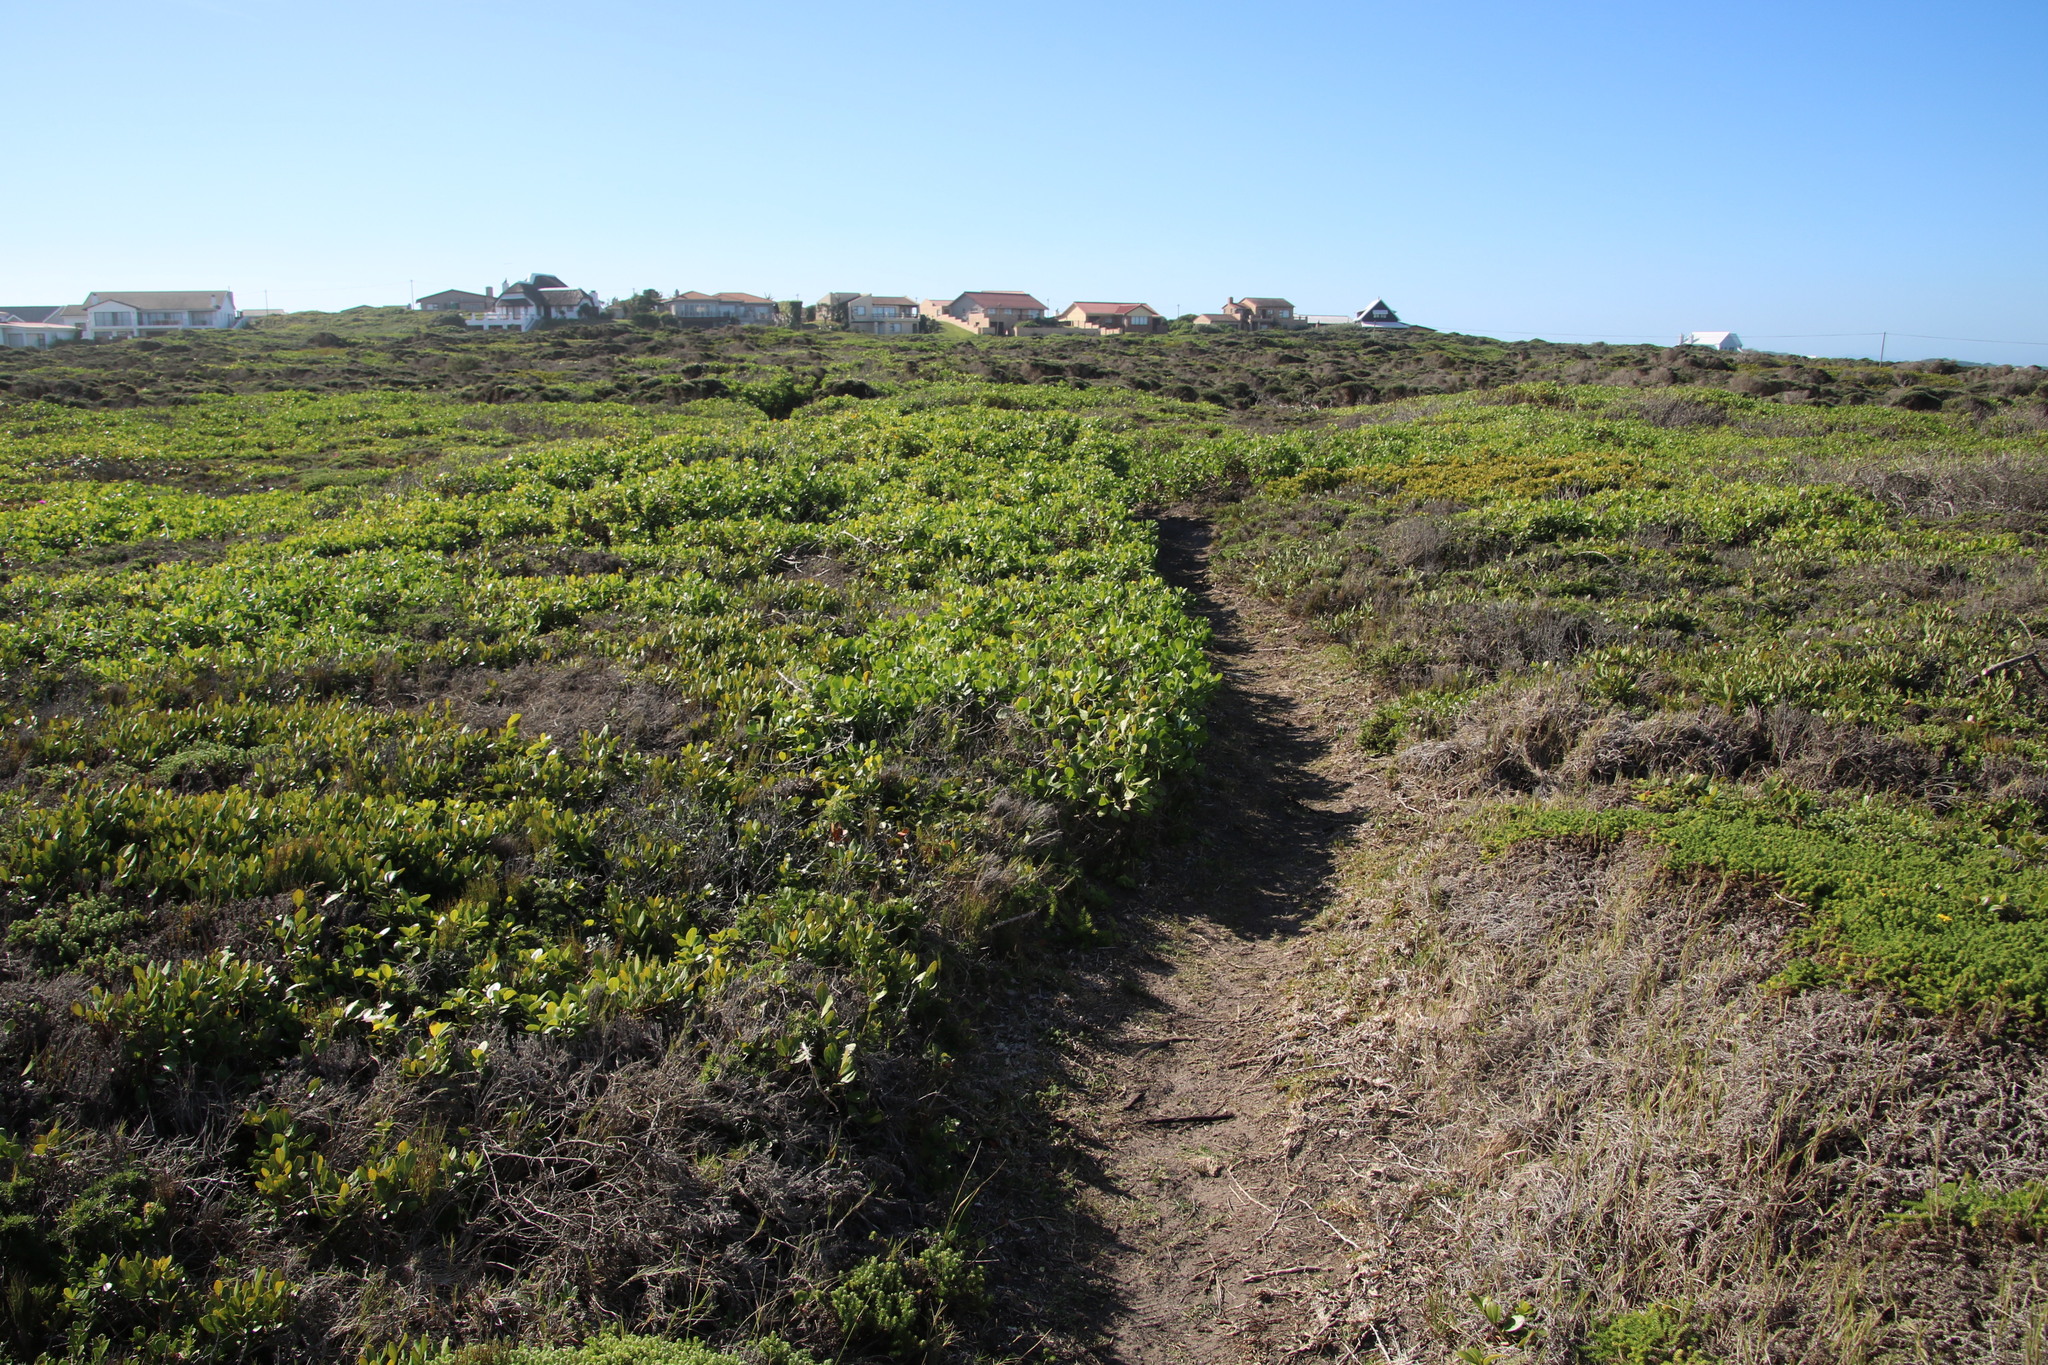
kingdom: Plantae
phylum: Tracheophyta
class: Magnoliopsida
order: Asterales
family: Asteraceae
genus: Osteospermum
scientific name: Osteospermum moniliferum
